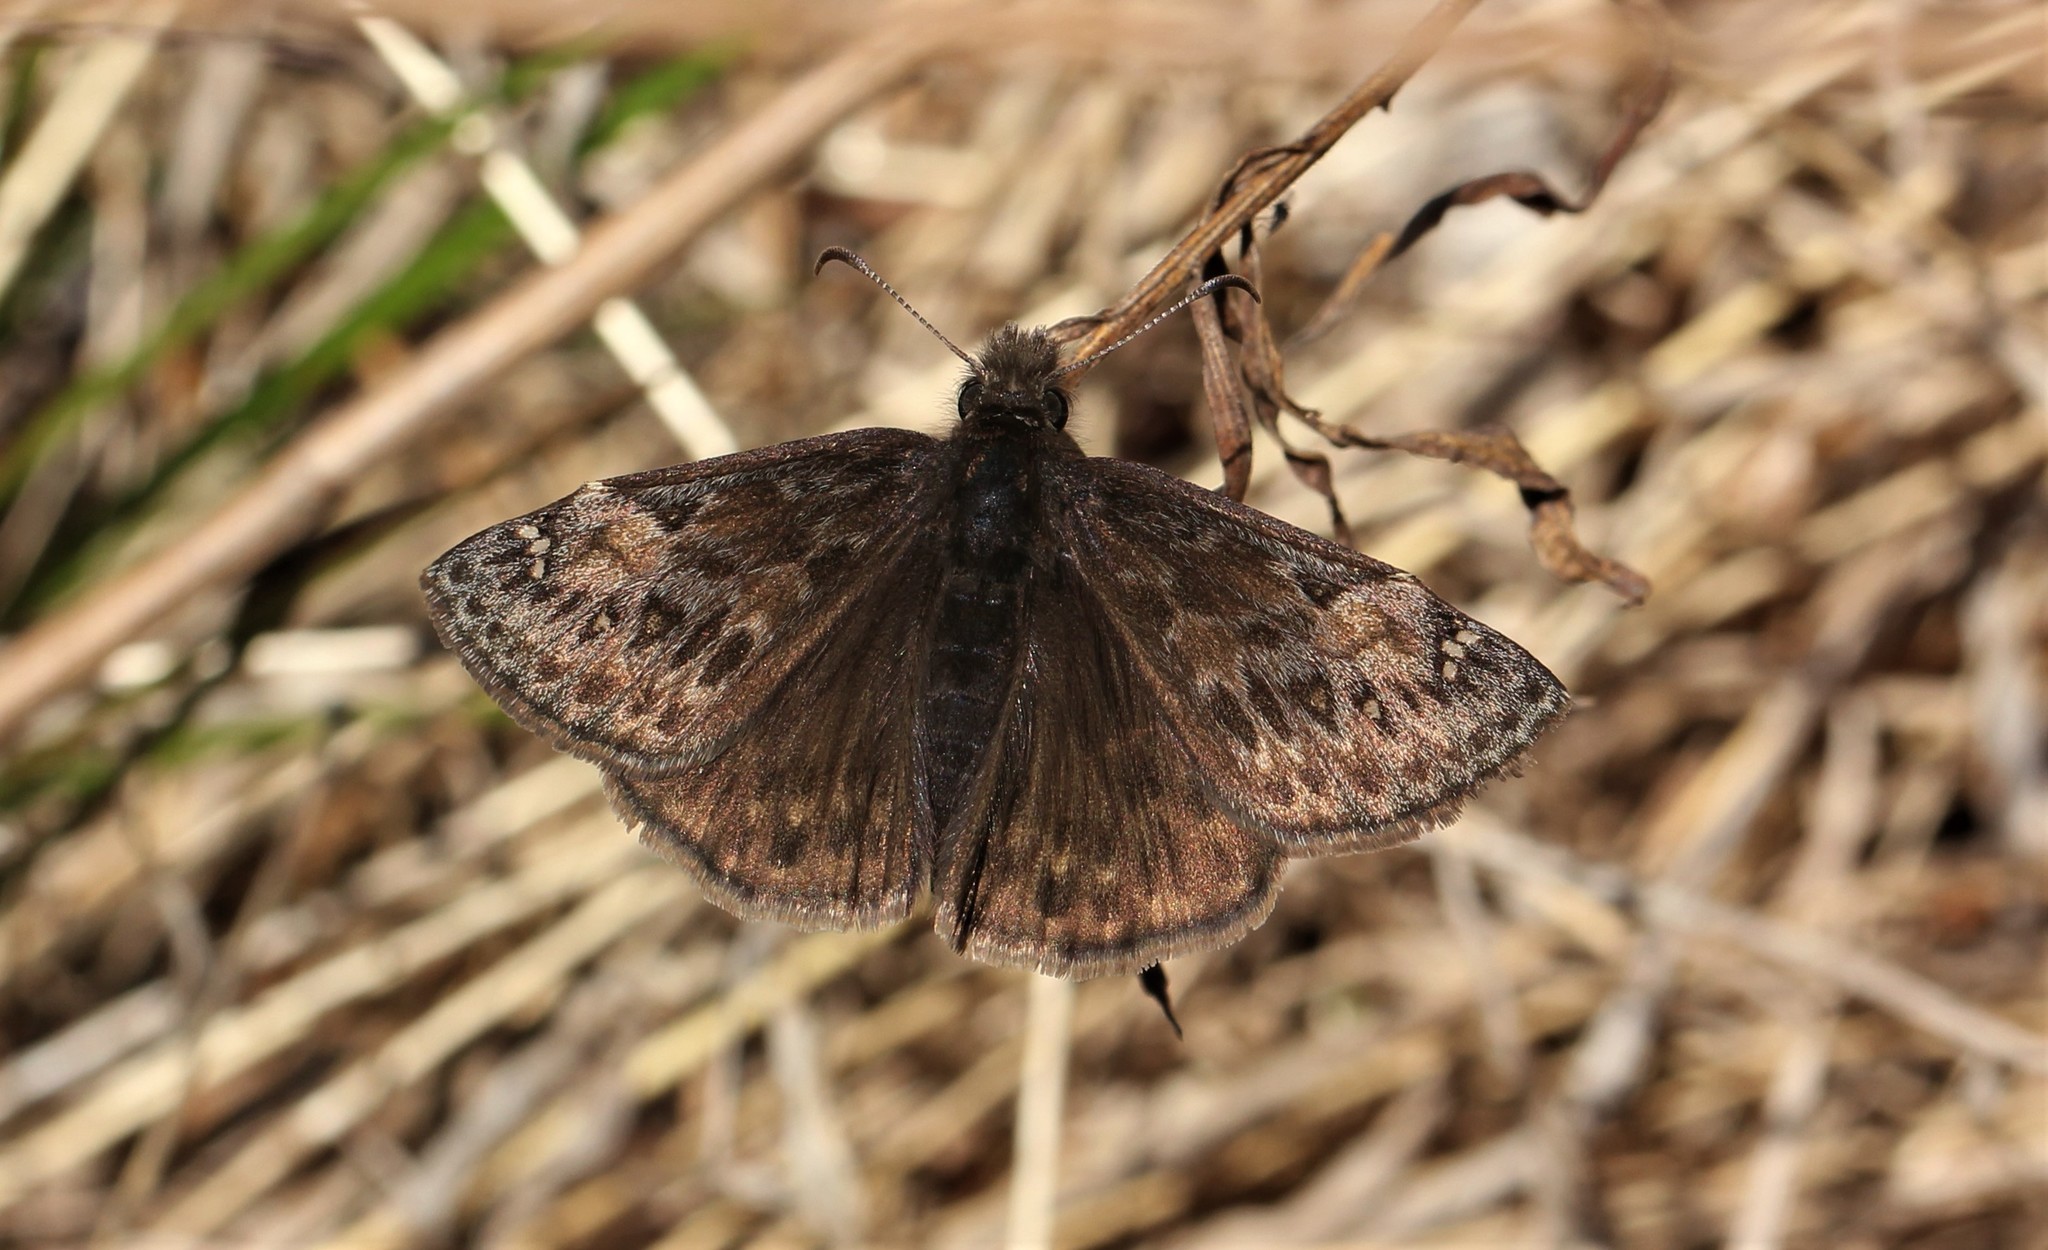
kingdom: Animalia
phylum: Arthropoda
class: Insecta
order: Lepidoptera
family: Hesperiidae
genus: Erynnis
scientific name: Erynnis juvenalis
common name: Juvenal's duskywing
